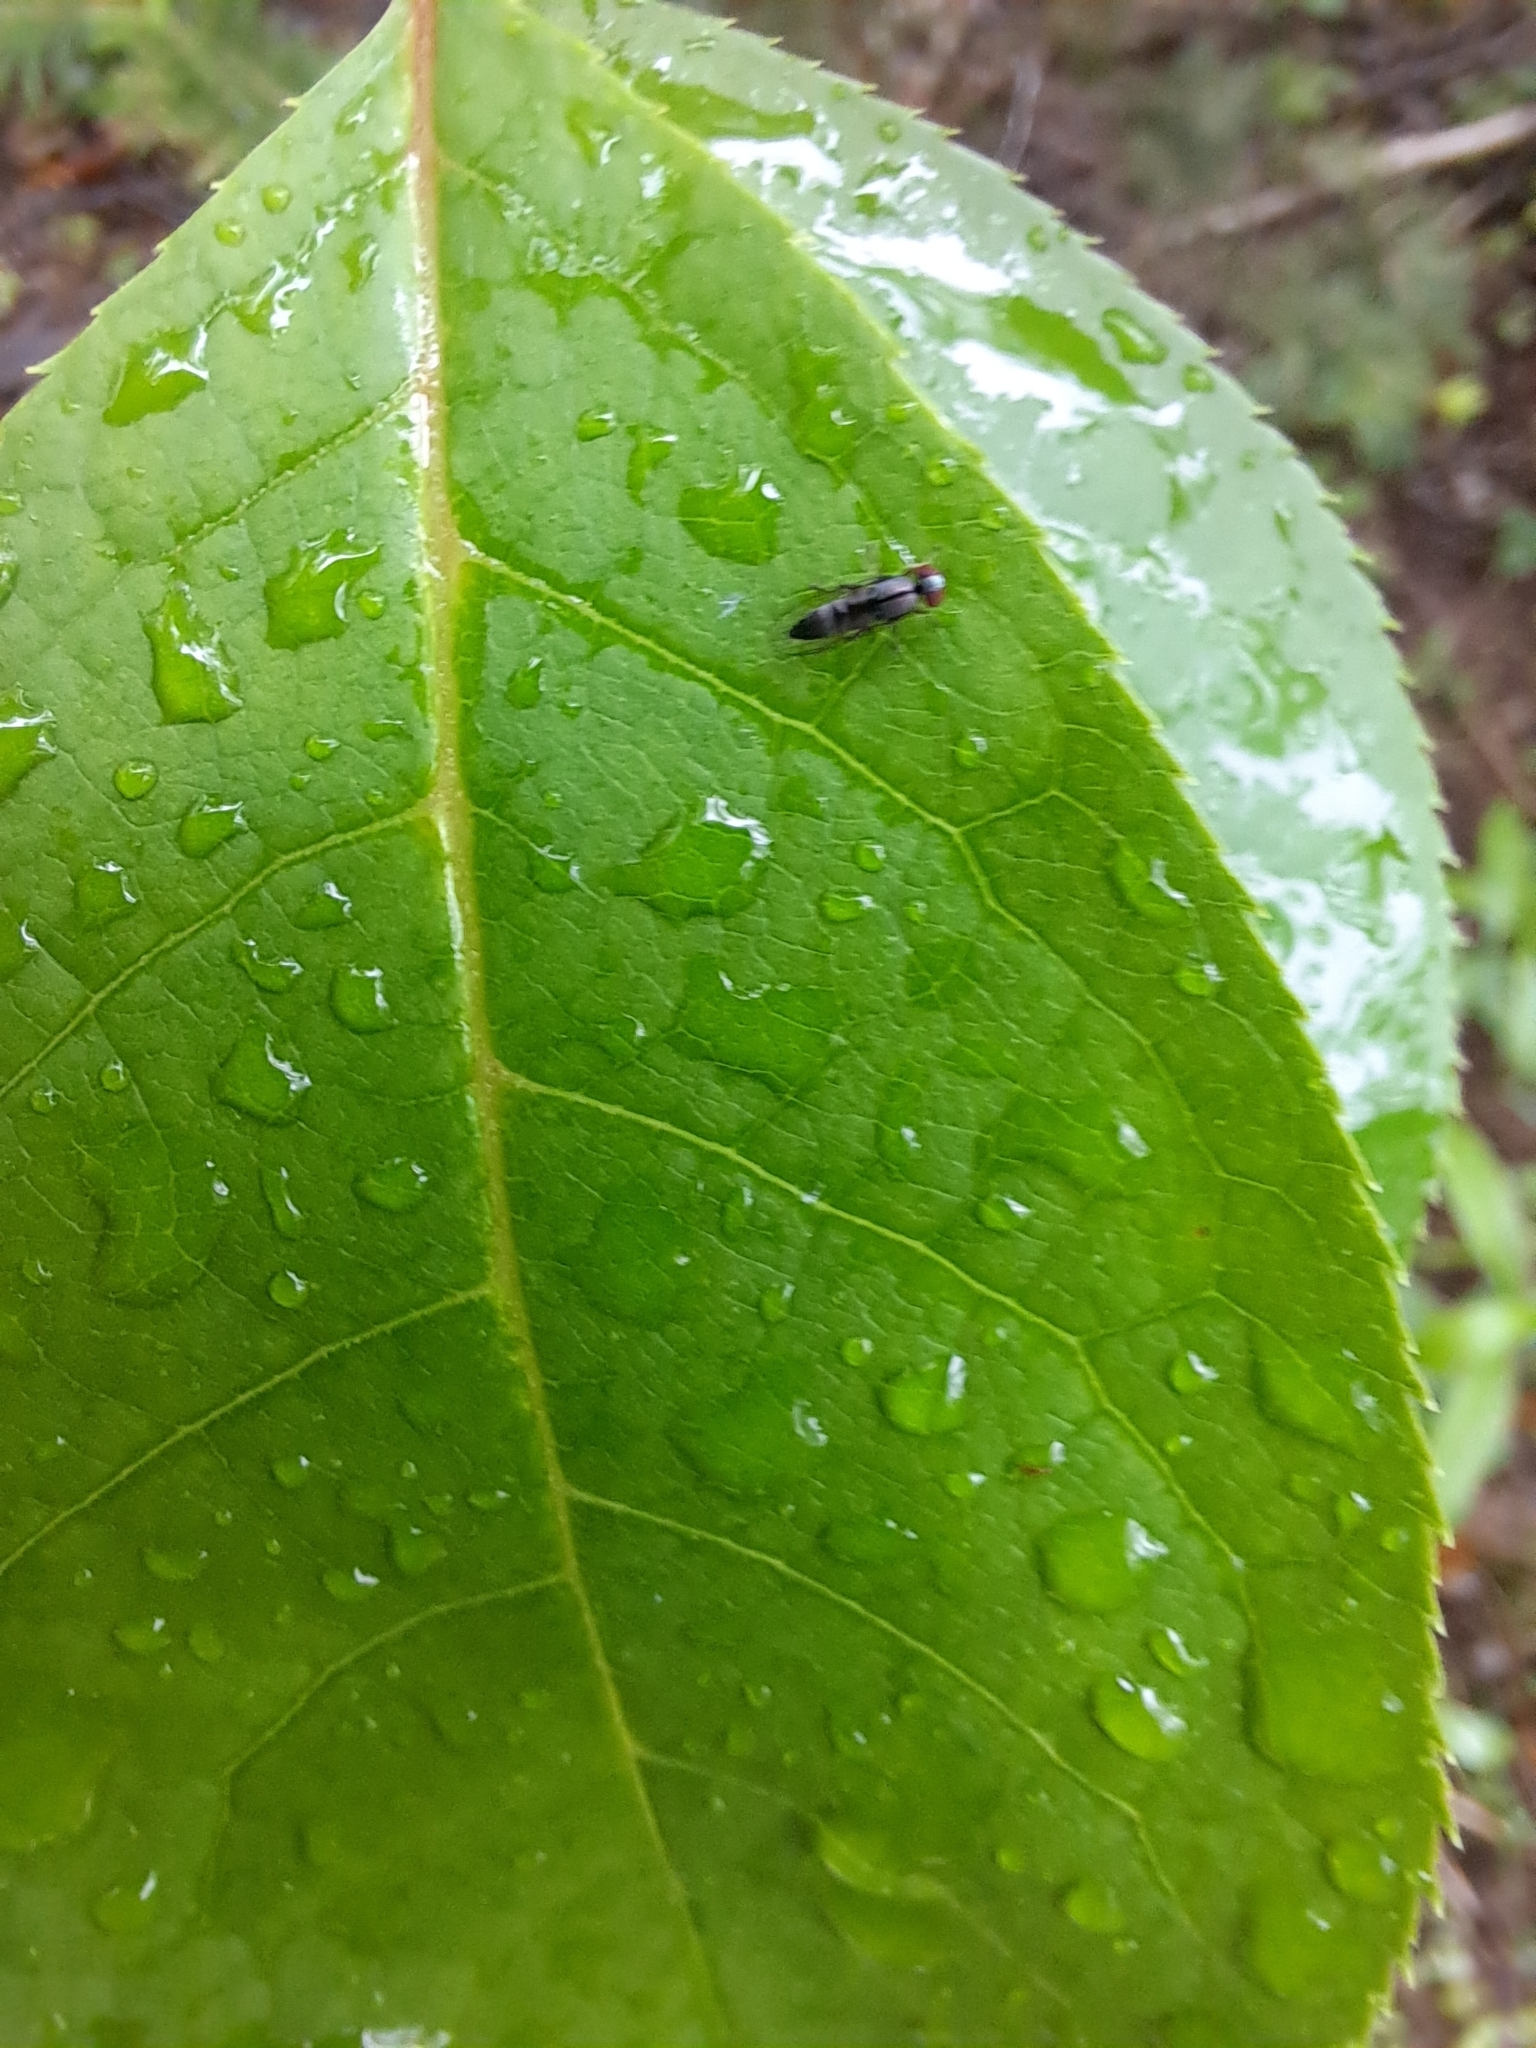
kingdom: Animalia
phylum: Arthropoda
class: Insecta
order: Diptera
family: Platypezidae
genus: Bertamyia
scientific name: Bertamyia notata
